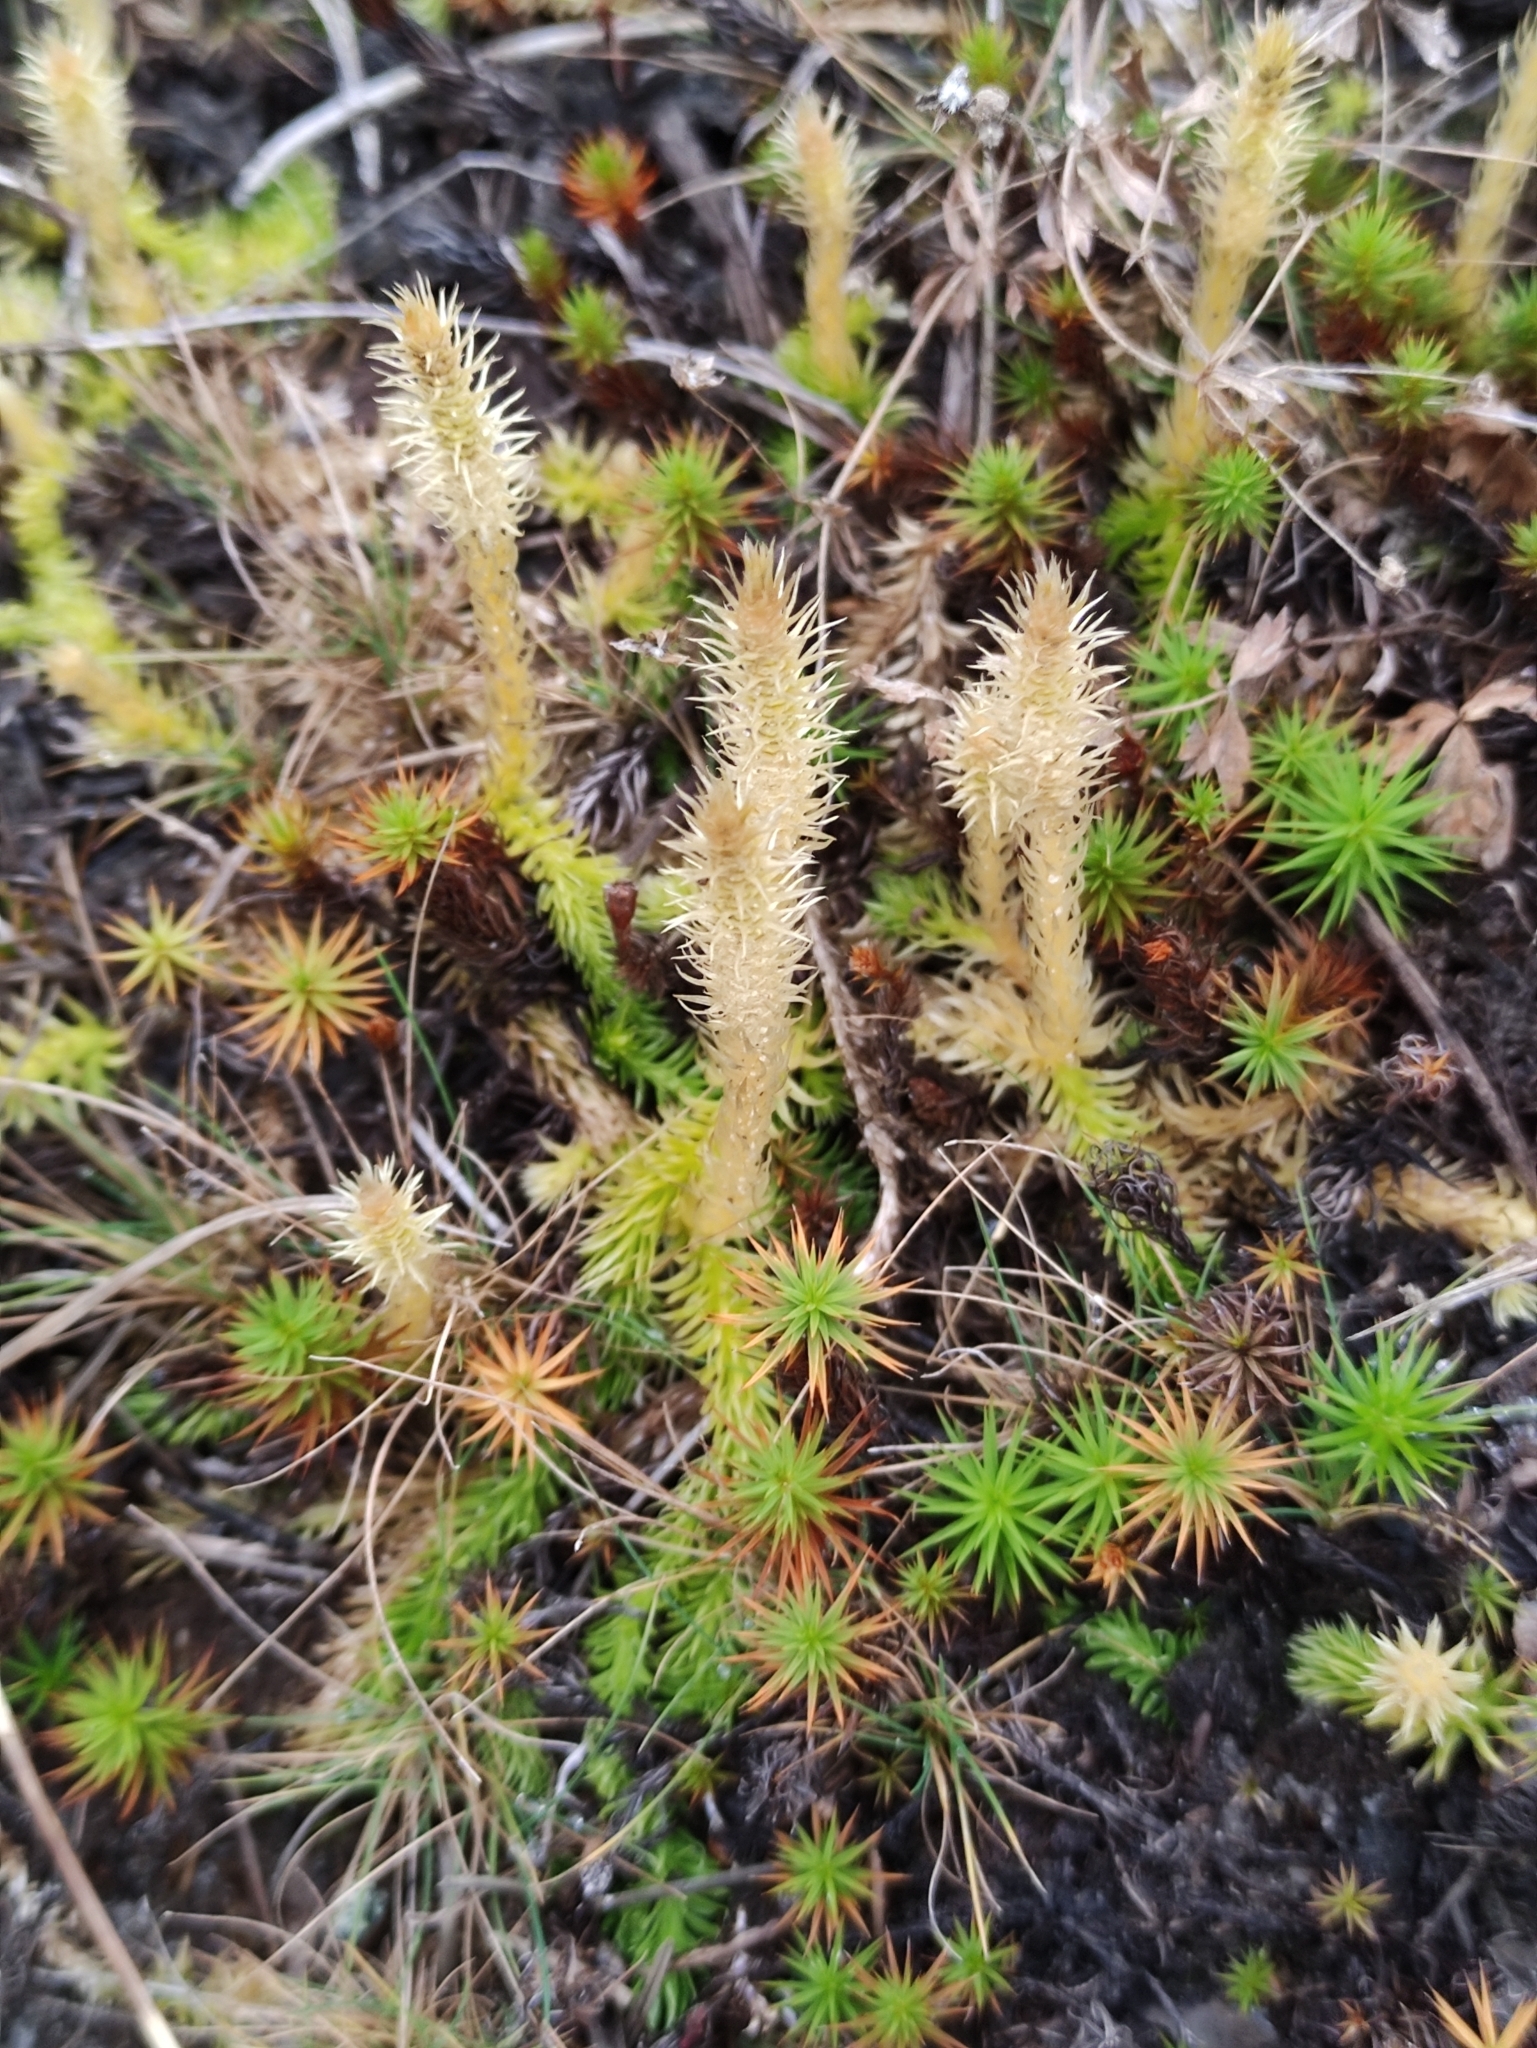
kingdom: Plantae
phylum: Tracheophyta
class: Lycopodiopsida
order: Lycopodiales
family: Lycopodiaceae
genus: Lycopodiella
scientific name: Lycopodiella inundata
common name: Marsh clubmoss
